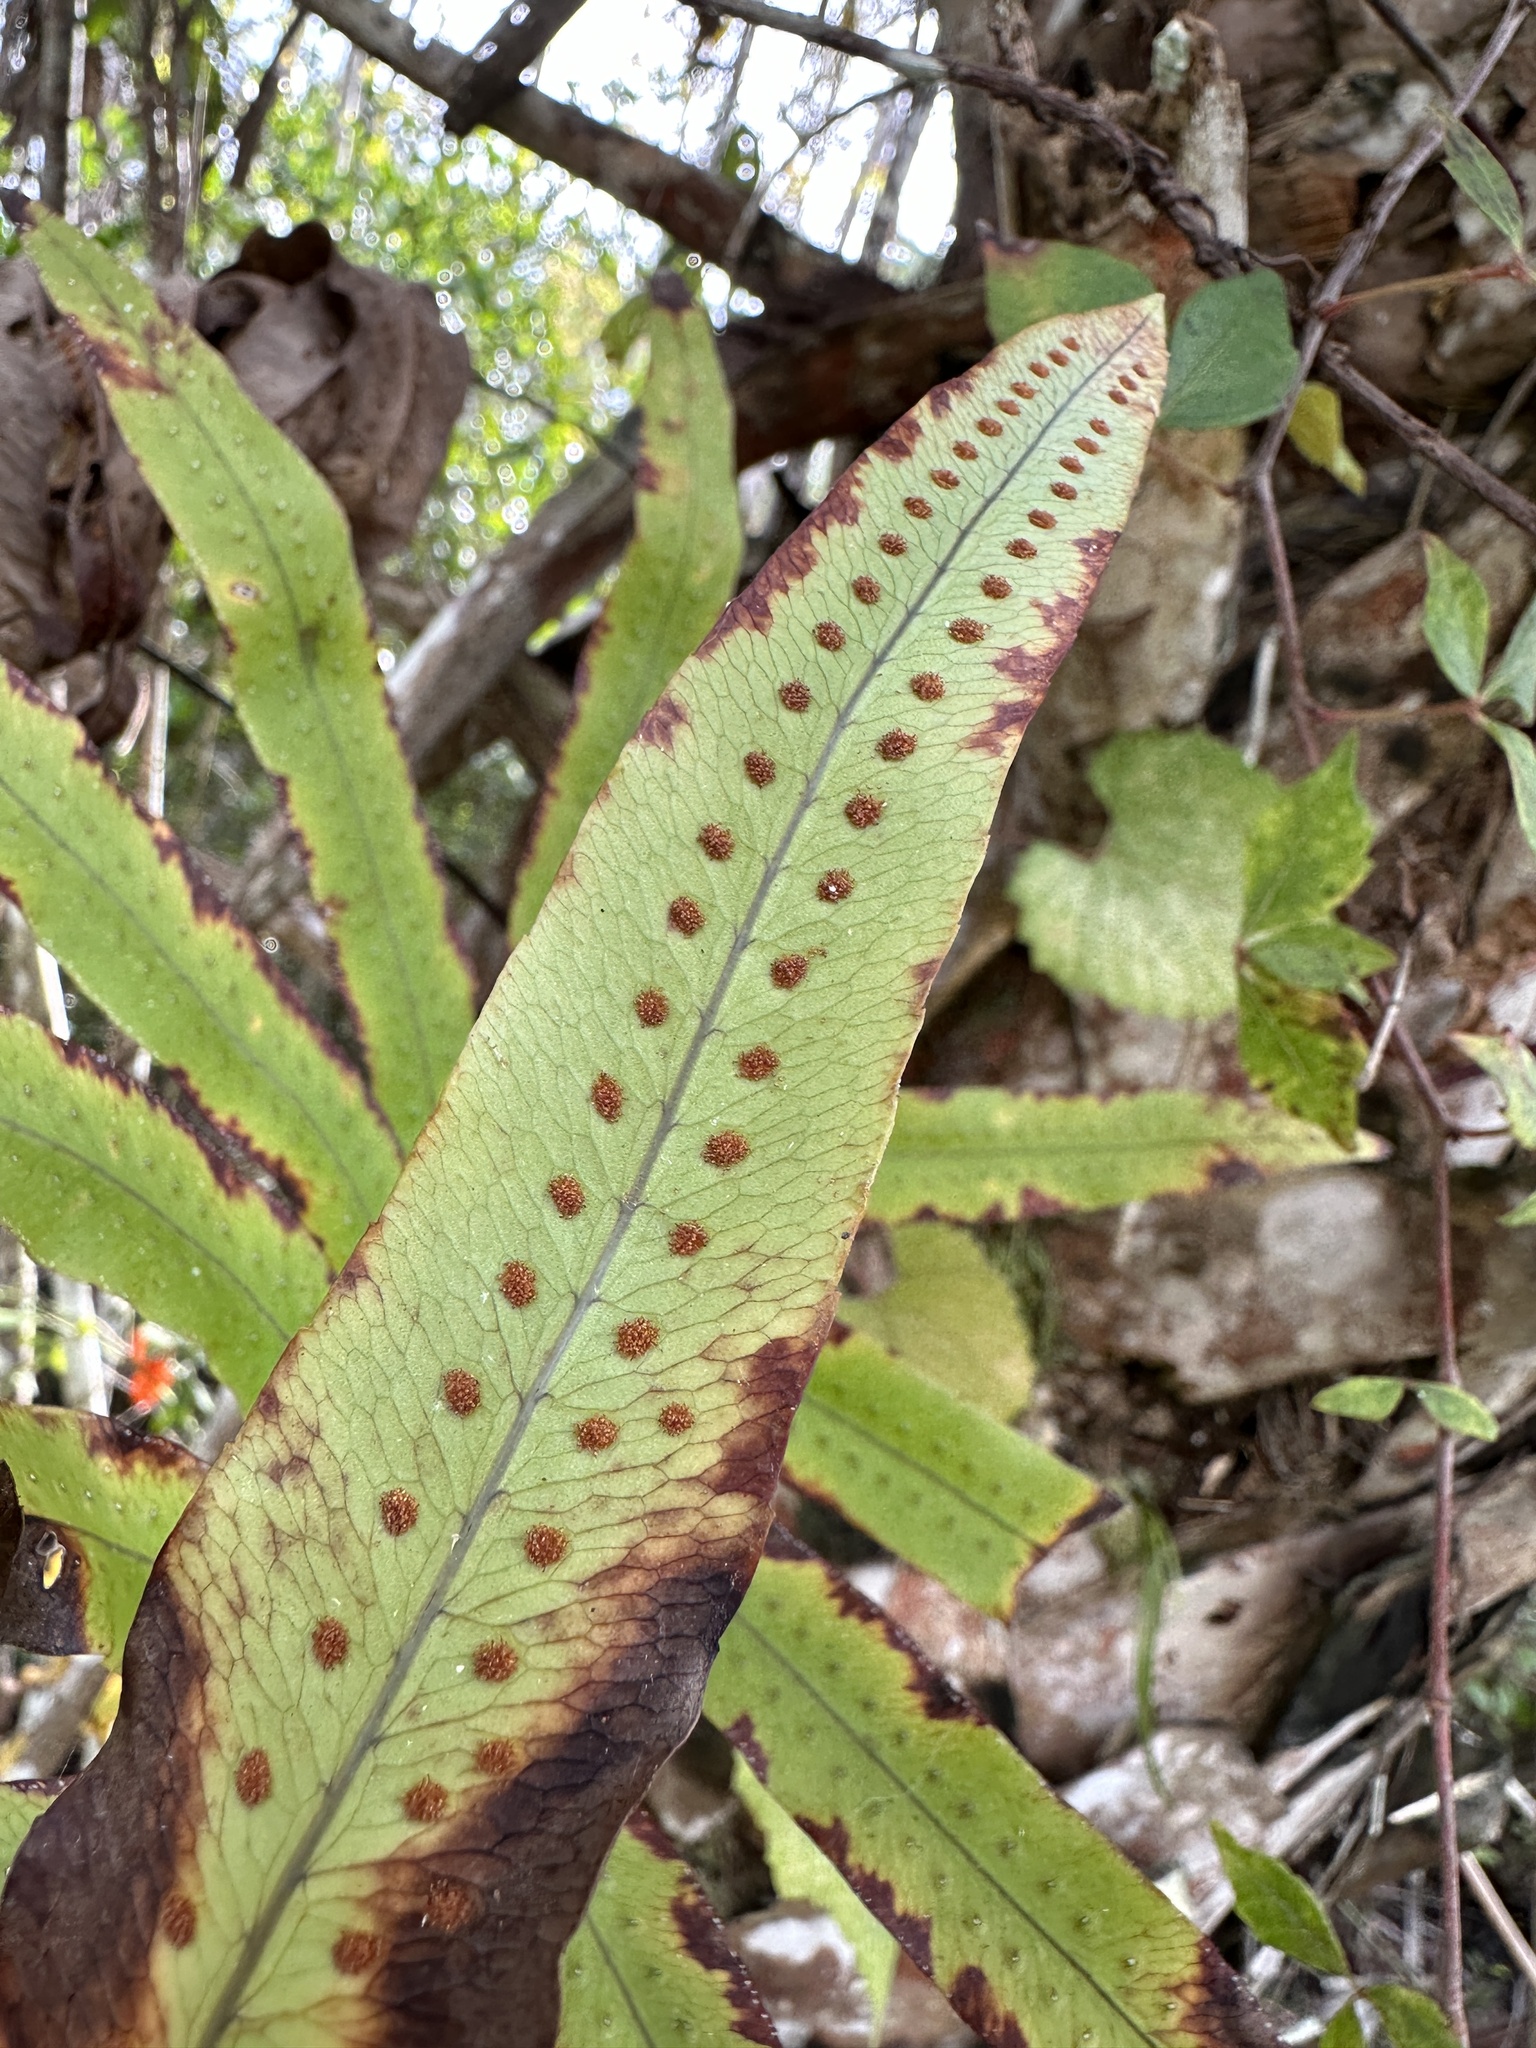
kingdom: Plantae
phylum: Tracheophyta
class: Polypodiopsida
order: Polypodiales
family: Polypodiaceae
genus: Phlebodium
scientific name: Phlebodium aureum
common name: Gold-foot fern
